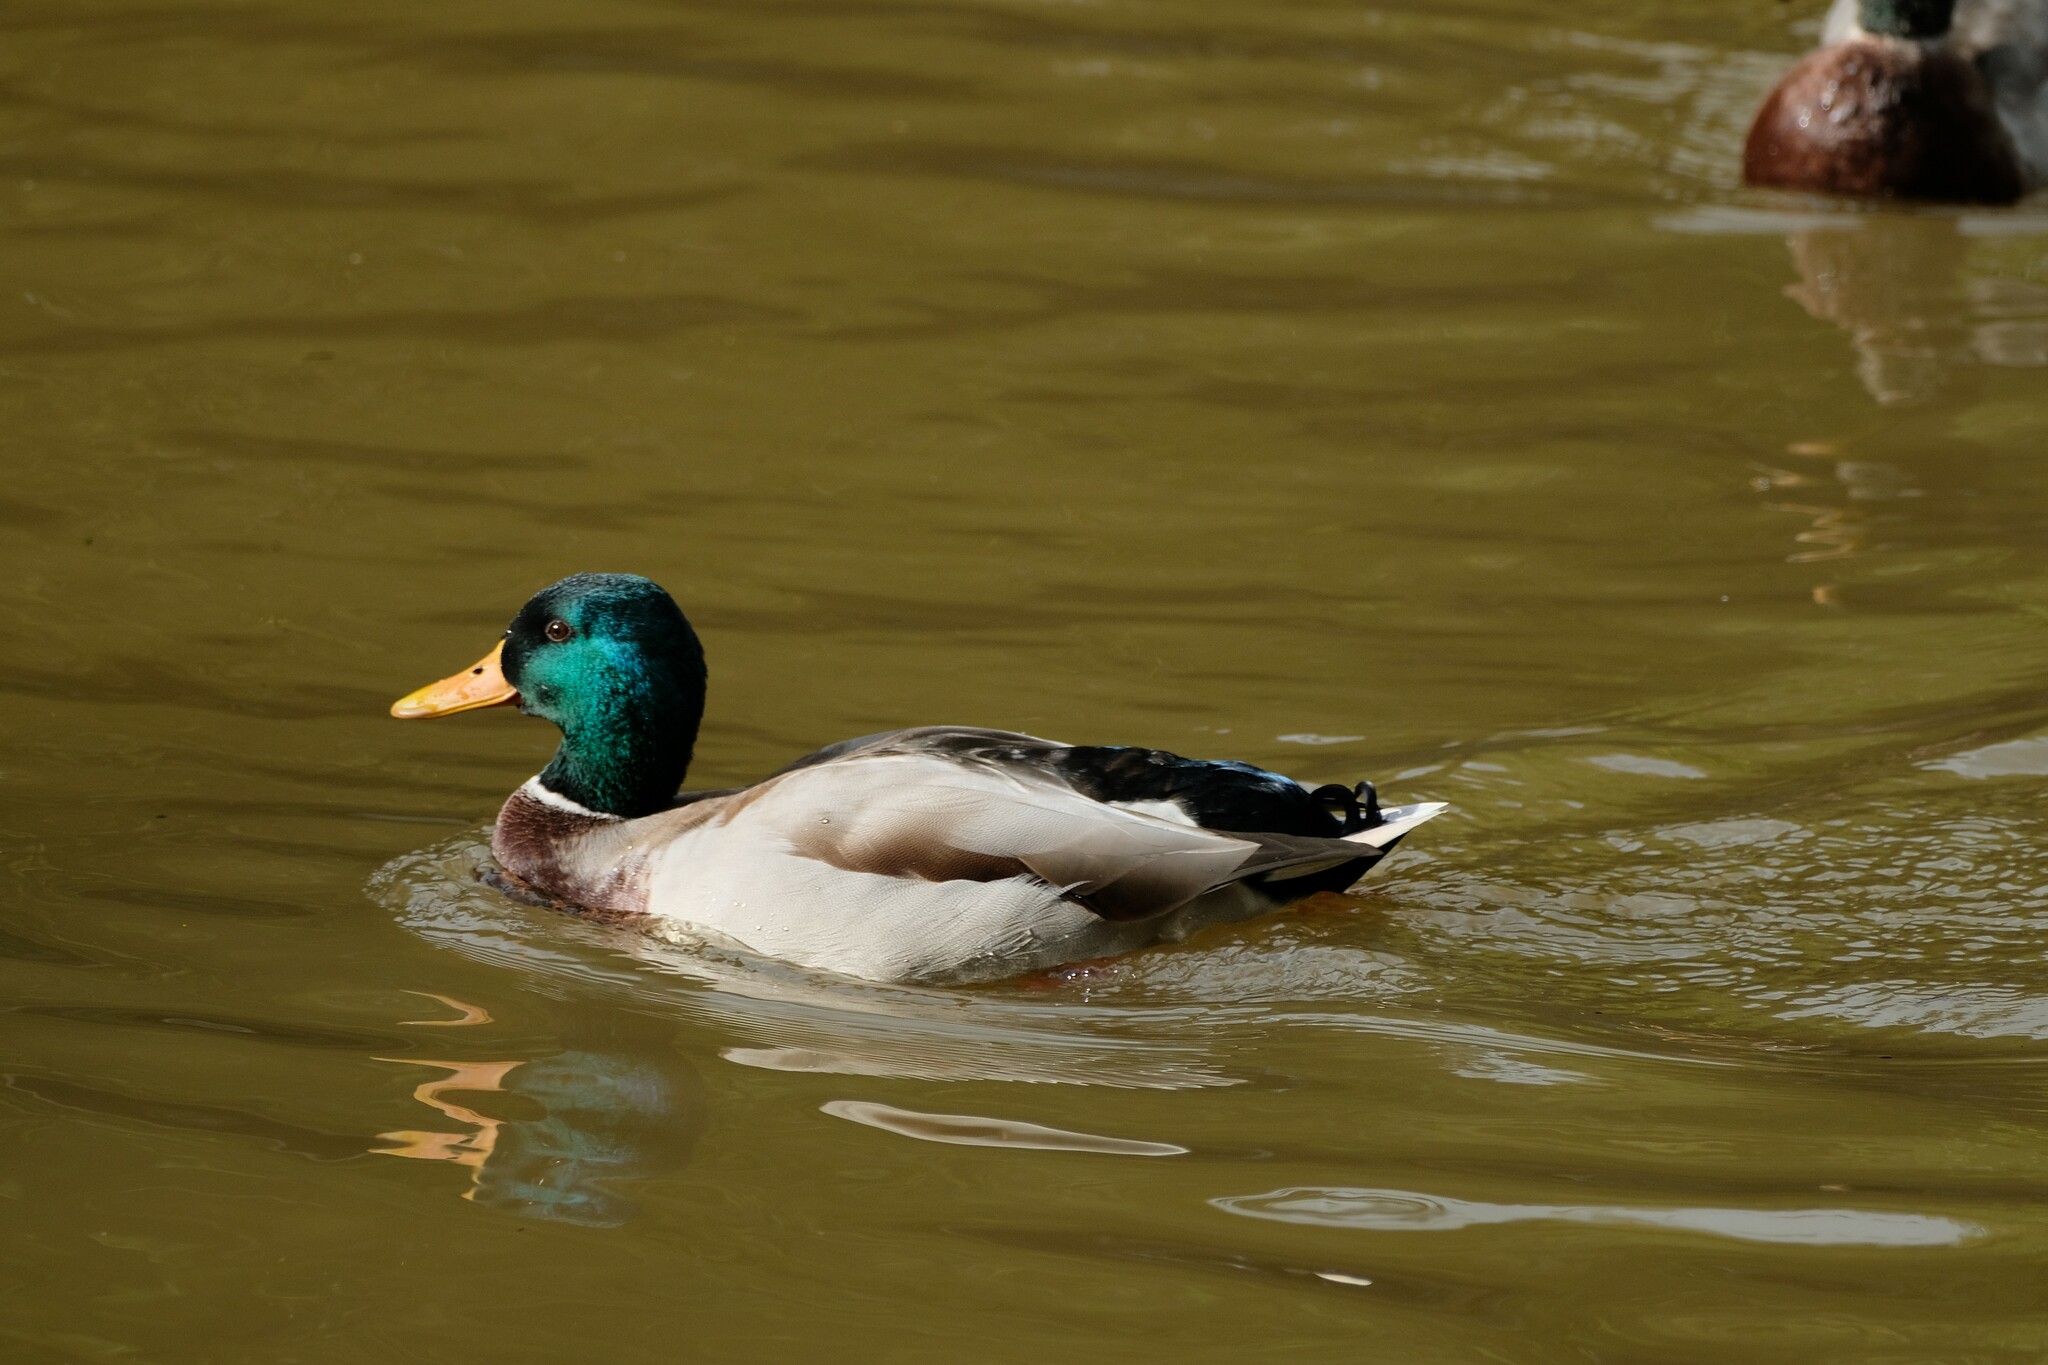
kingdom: Animalia
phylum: Chordata
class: Aves
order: Anseriformes
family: Anatidae
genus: Anas
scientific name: Anas platyrhynchos
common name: Mallard
